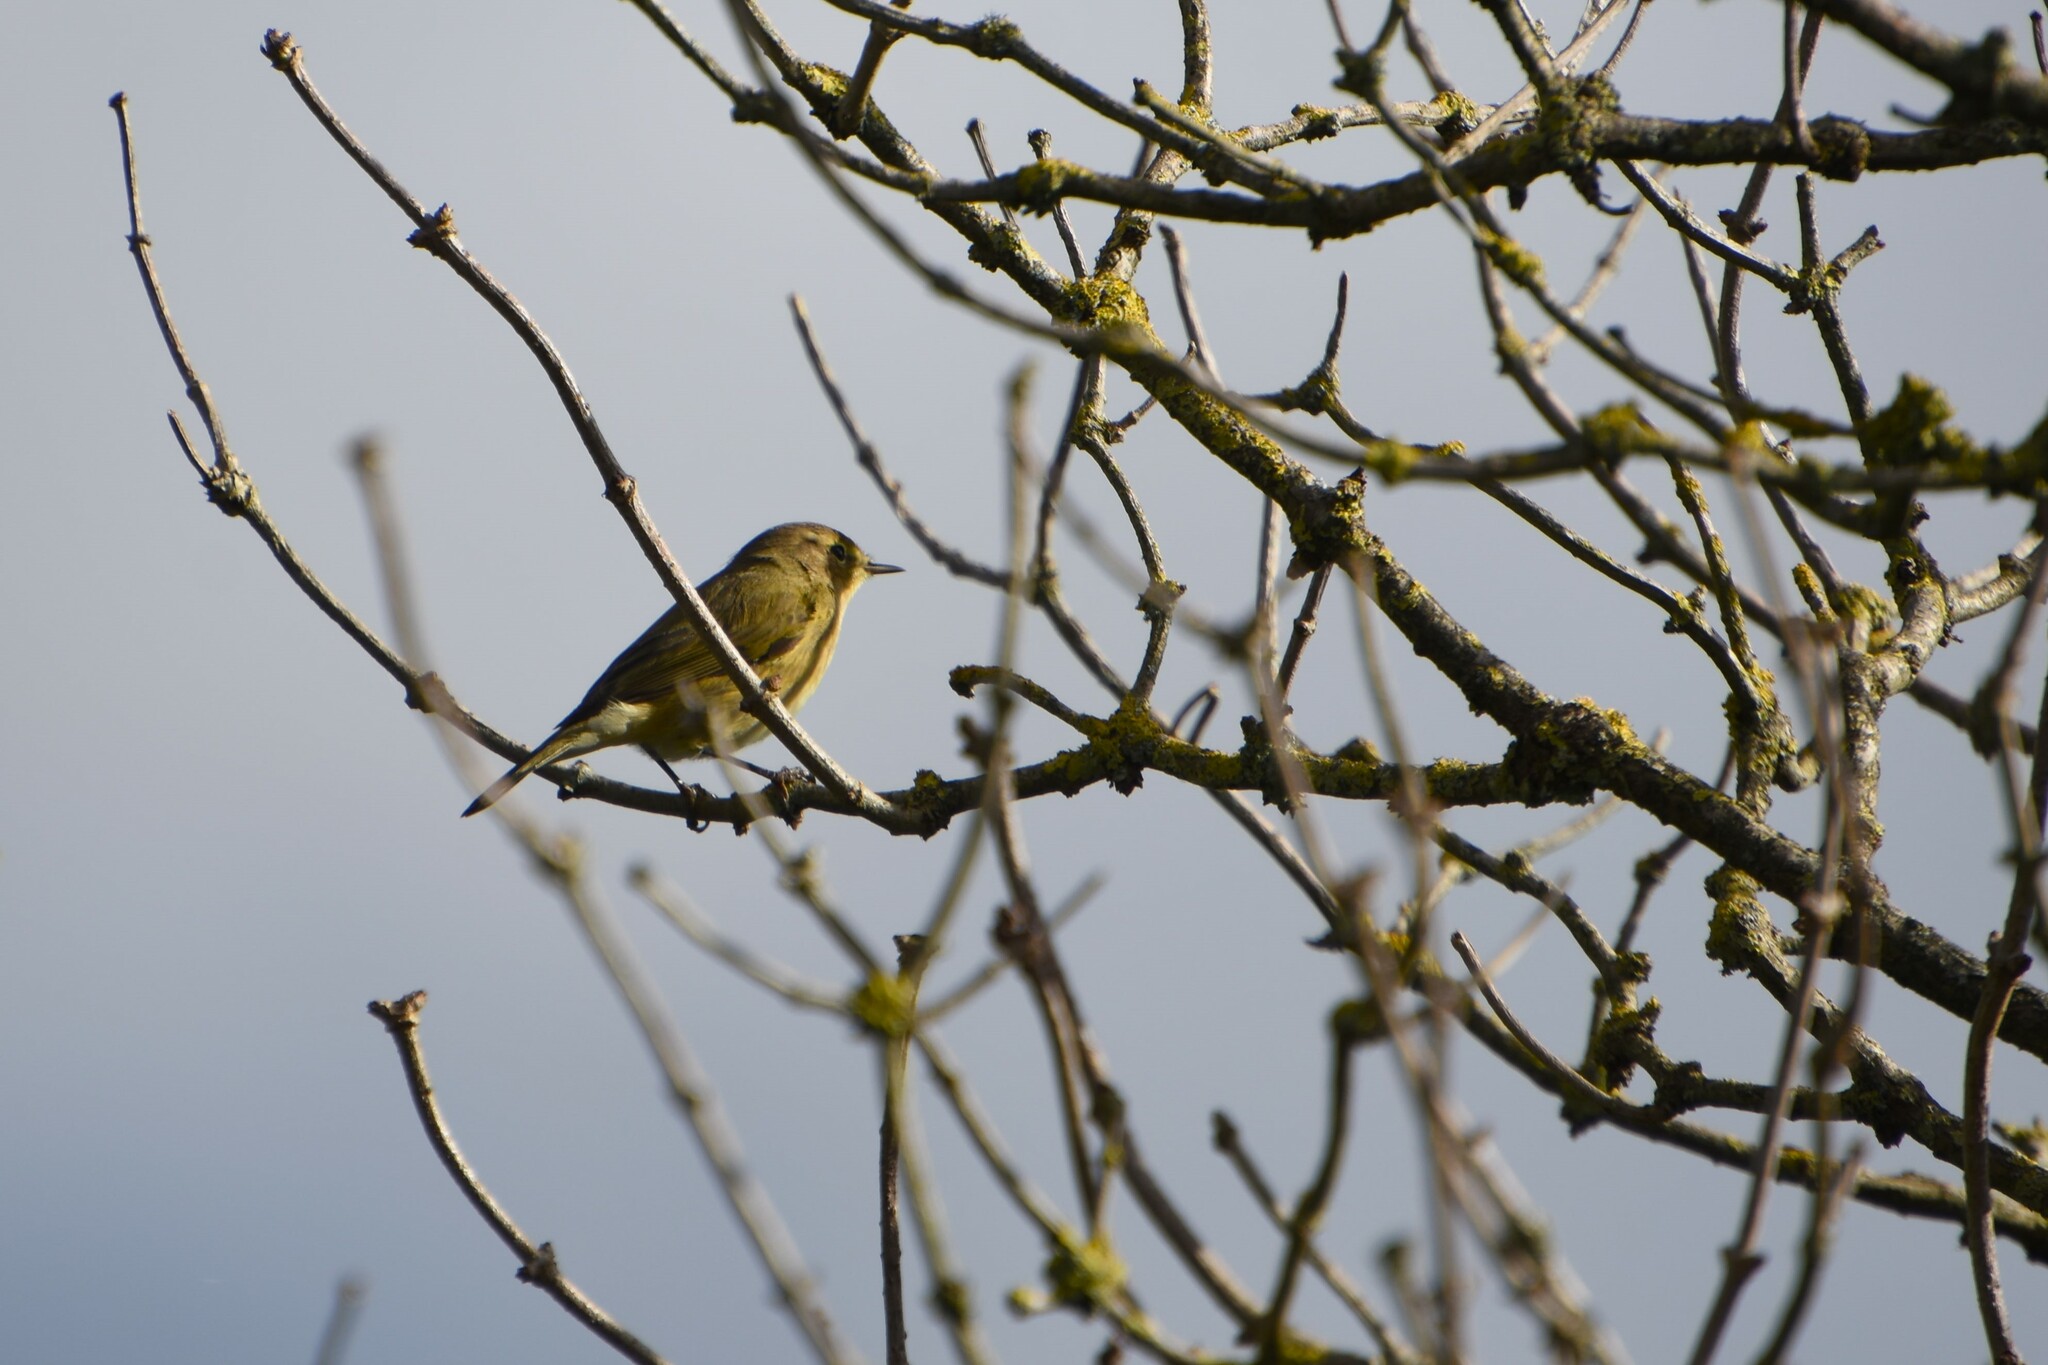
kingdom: Animalia
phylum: Chordata
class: Aves
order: Passeriformes
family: Phylloscopidae
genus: Phylloscopus
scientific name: Phylloscopus collybita
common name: Common chiffchaff
